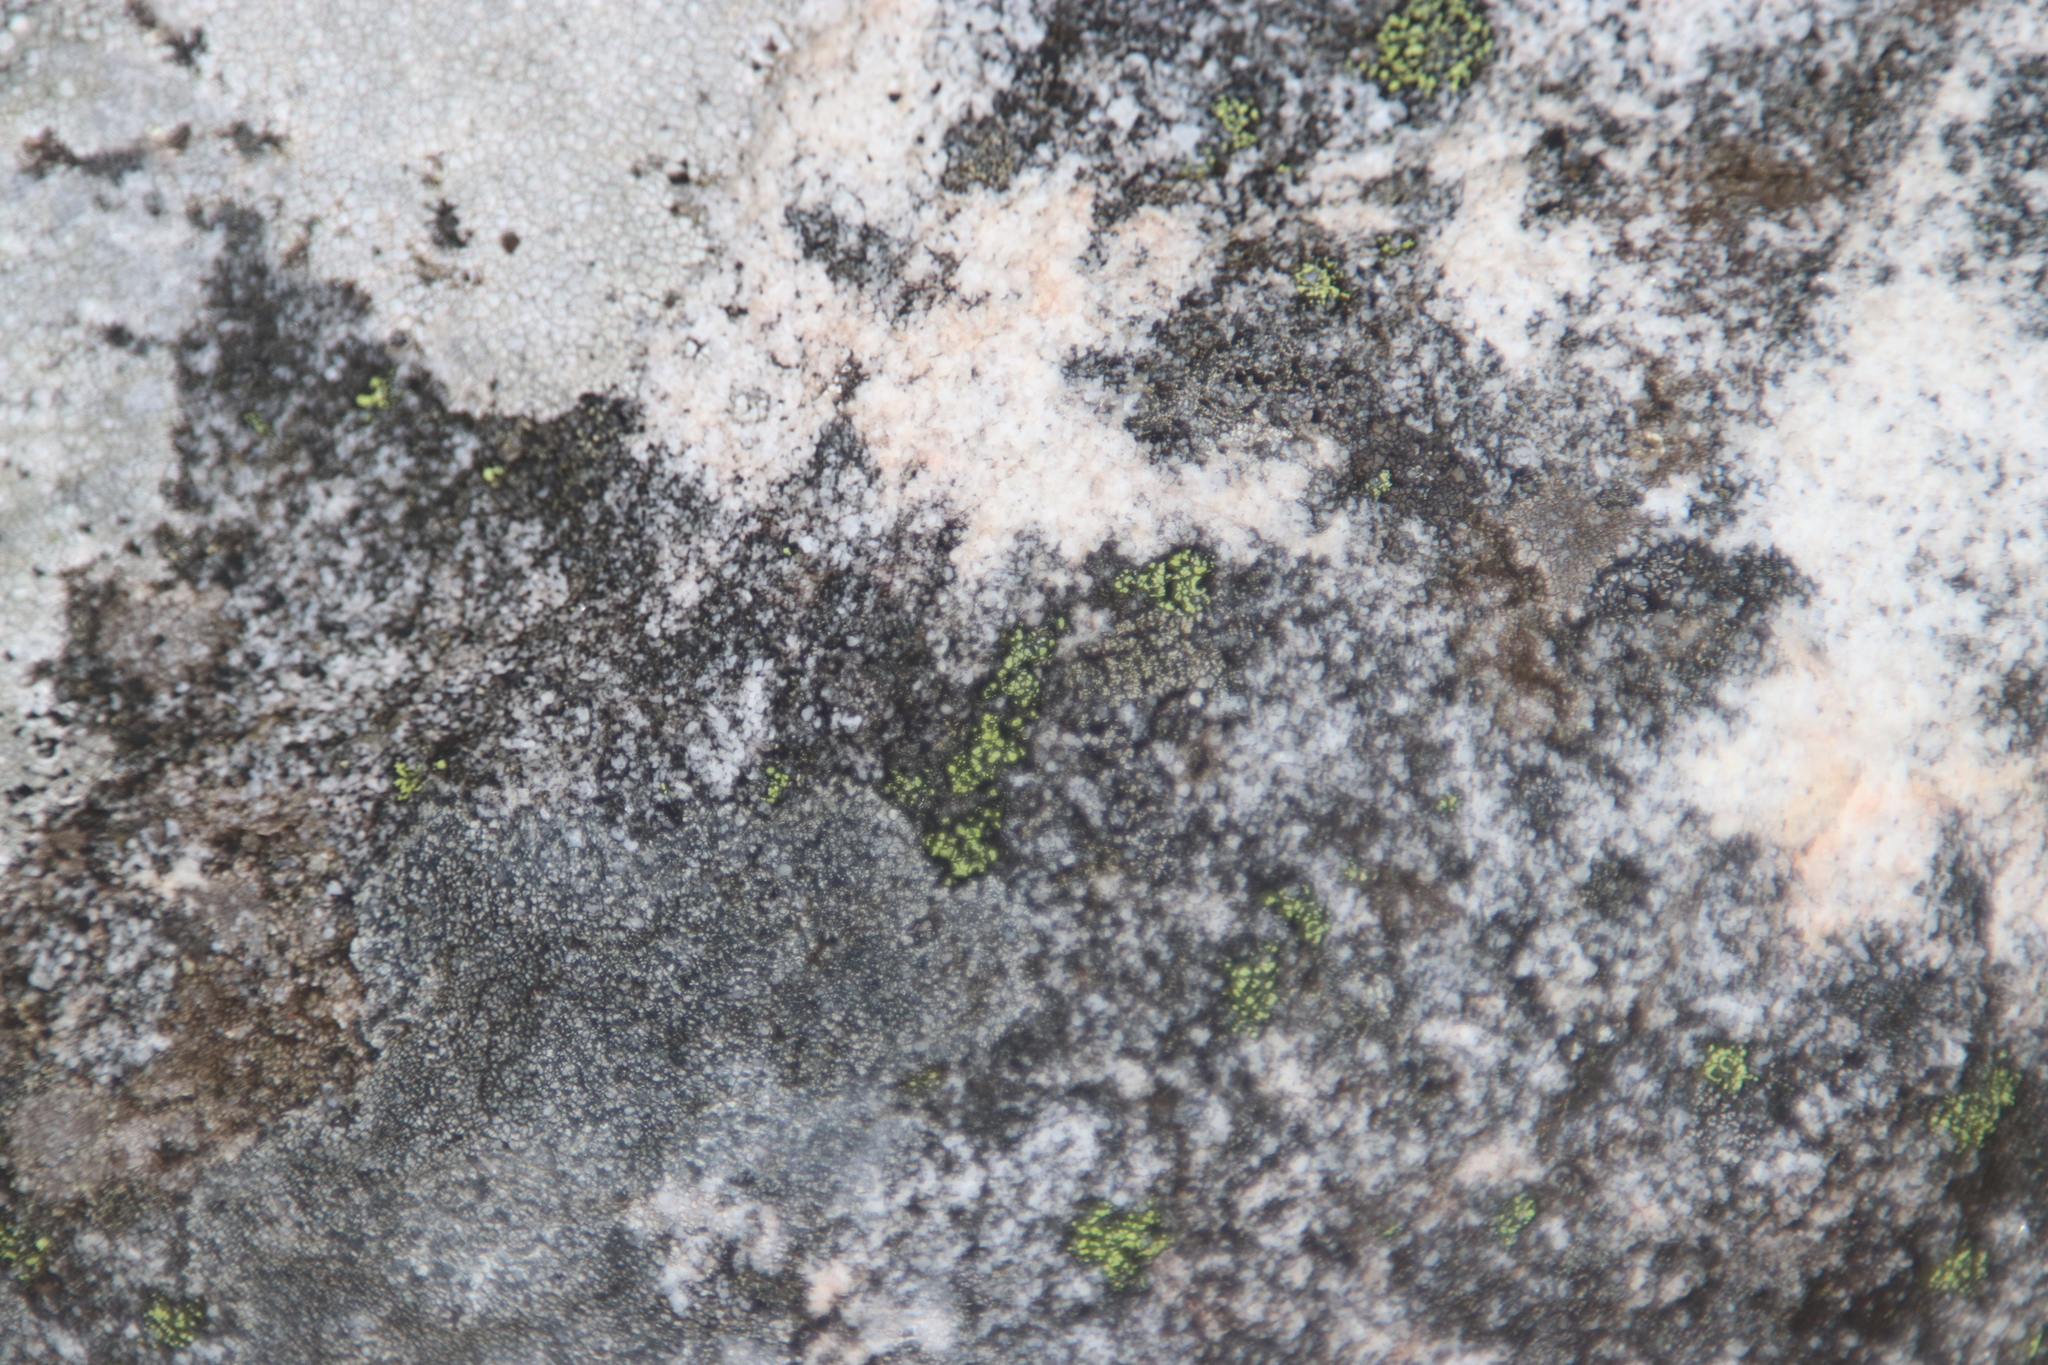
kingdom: Fungi
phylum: Ascomycota
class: Lecanoromycetes
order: Rhizocarpales
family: Rhizocarpaceae
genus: Rhizocarpon
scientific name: Rhizocarpon viridiatrum
